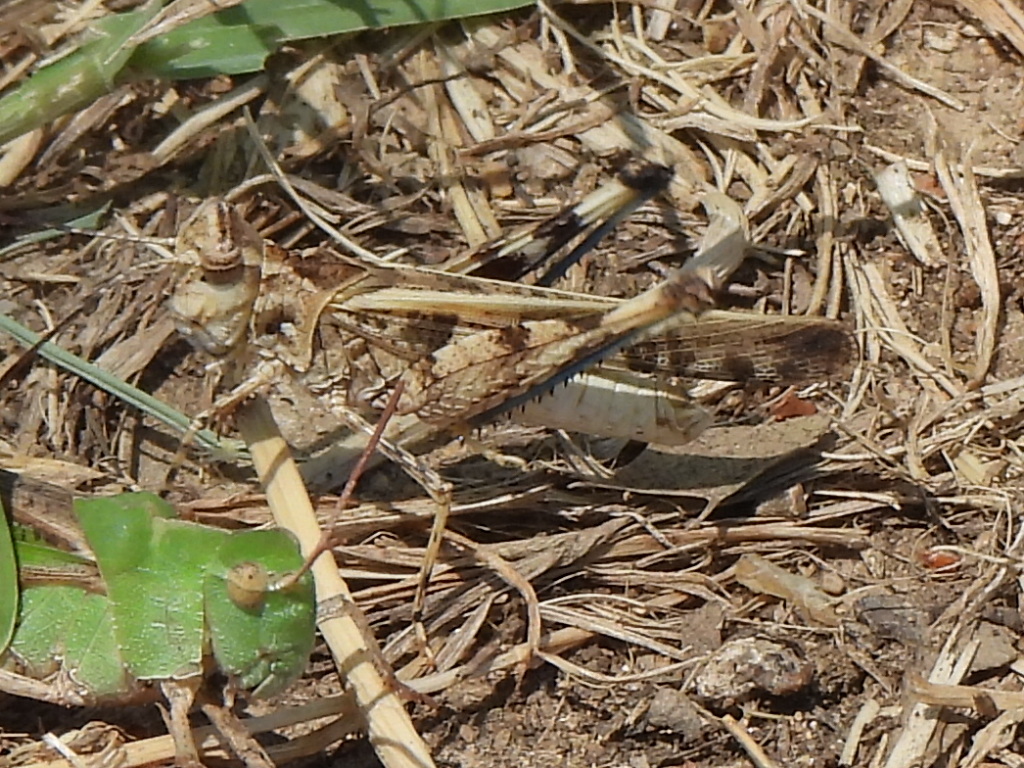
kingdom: Animalia
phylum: Arthropoda
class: Insecta
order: Orthoptera
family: Acrididae
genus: Trachyrhachys
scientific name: Trachyrhachys kiowa
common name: Kiowa grasshopper
